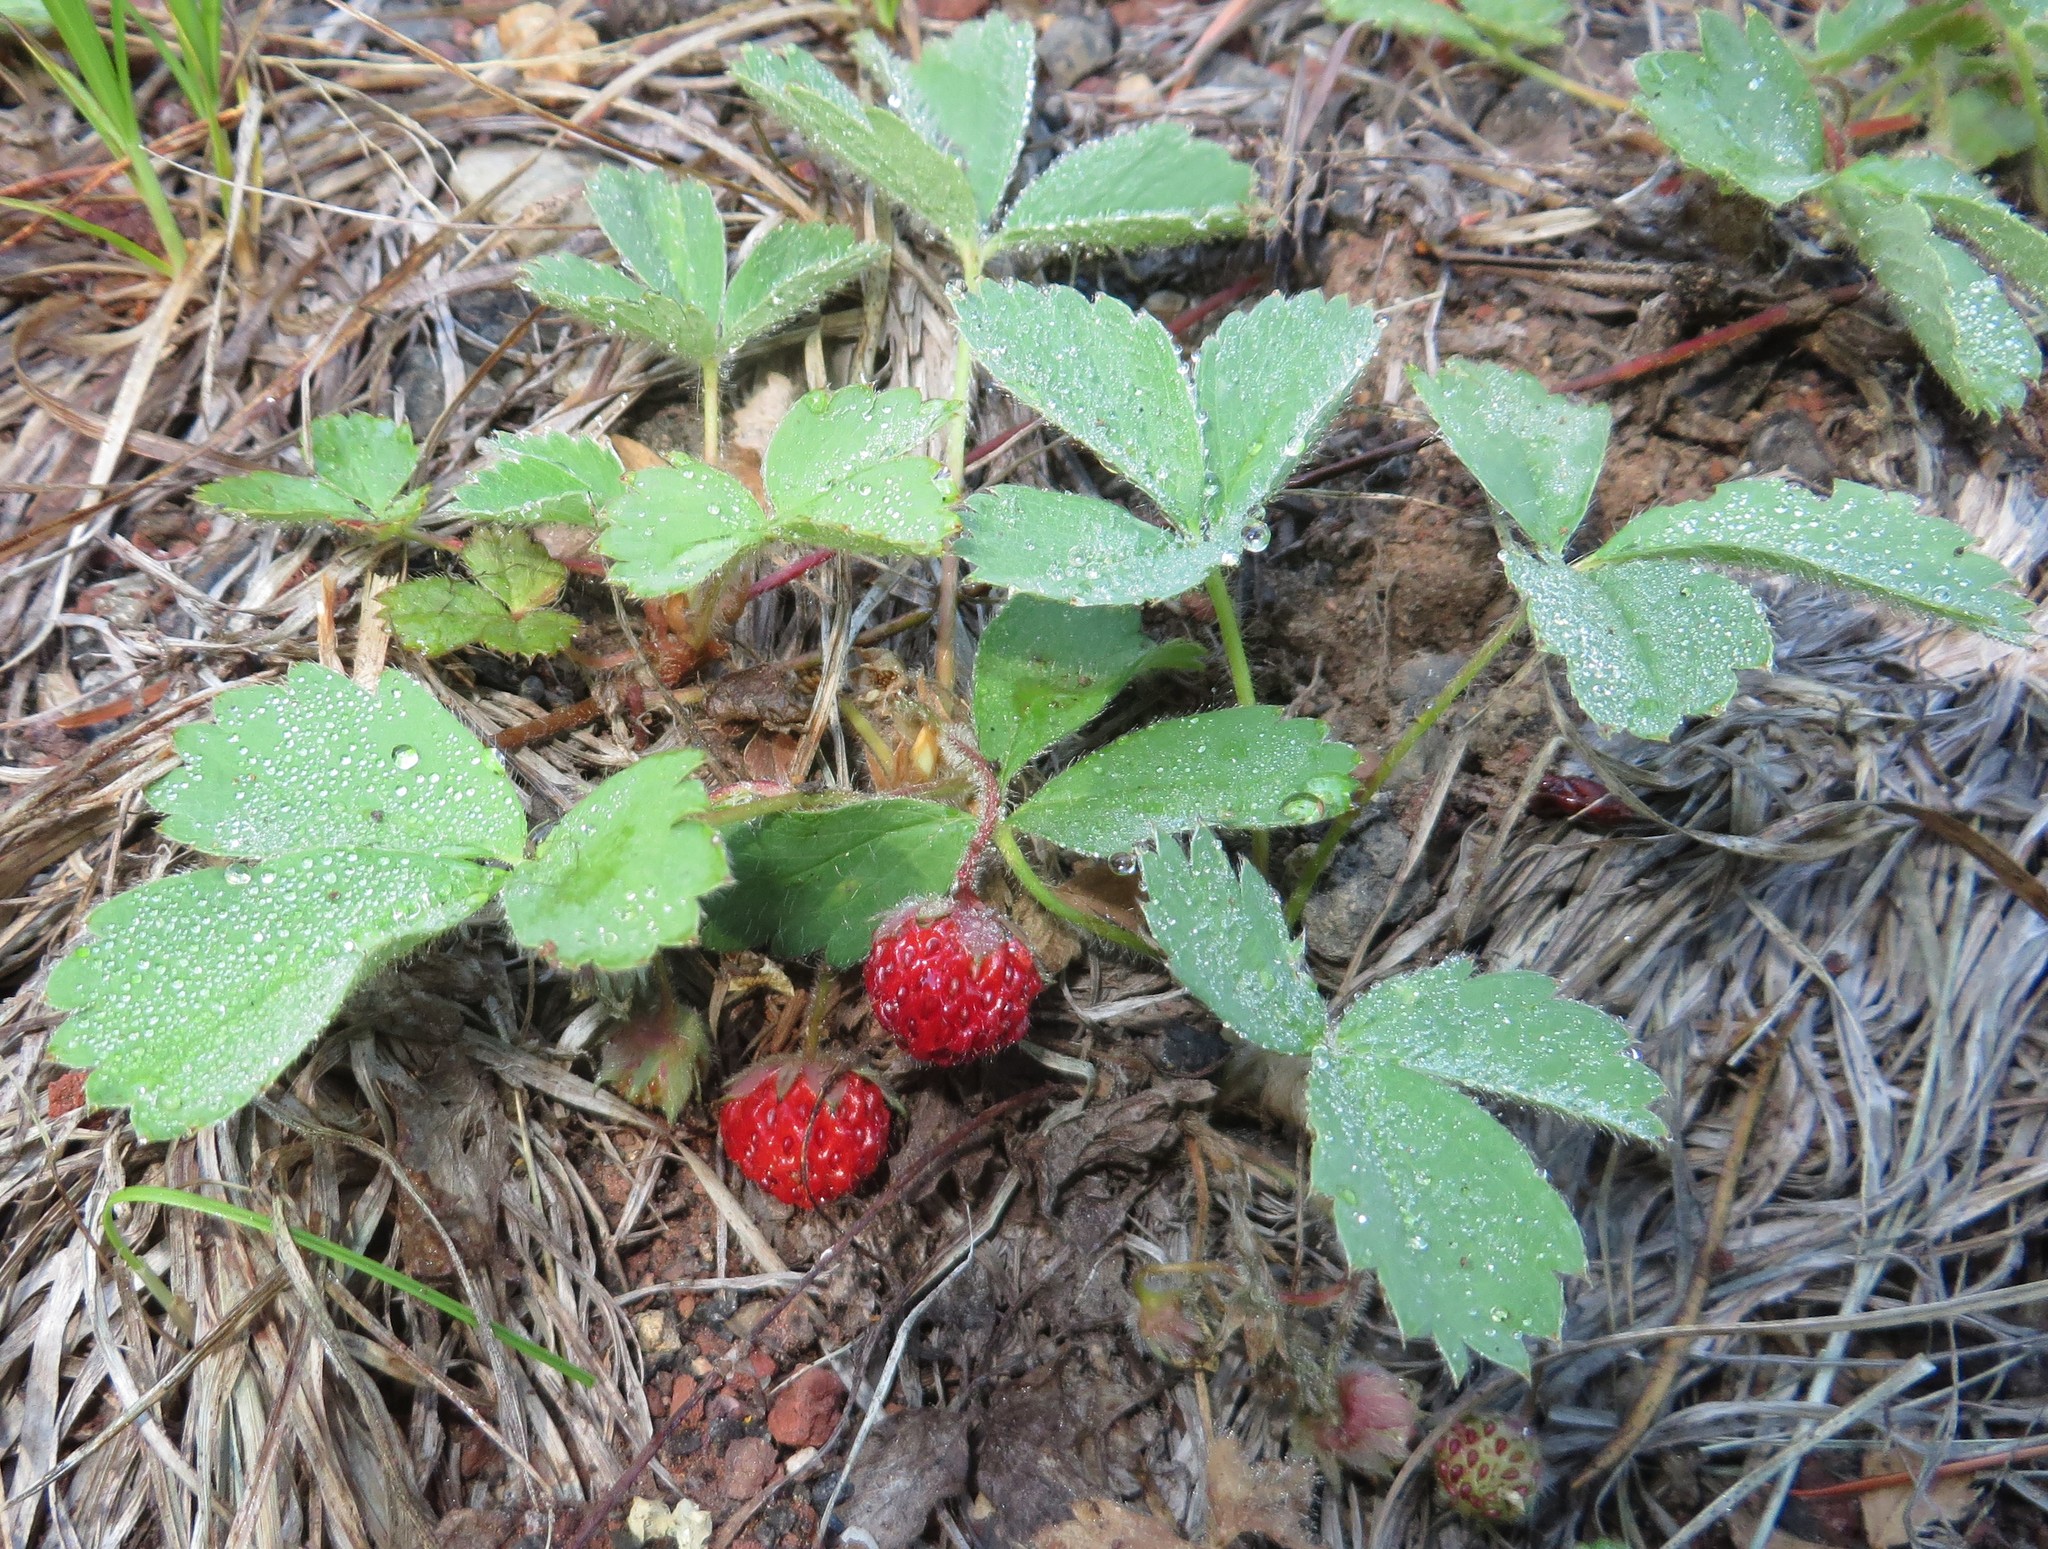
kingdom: Plantae
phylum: Tracheophyta
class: Magnoliopsida
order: Rosales
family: Rosaceae
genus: Fragaria
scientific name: Fragaria cascadensis
